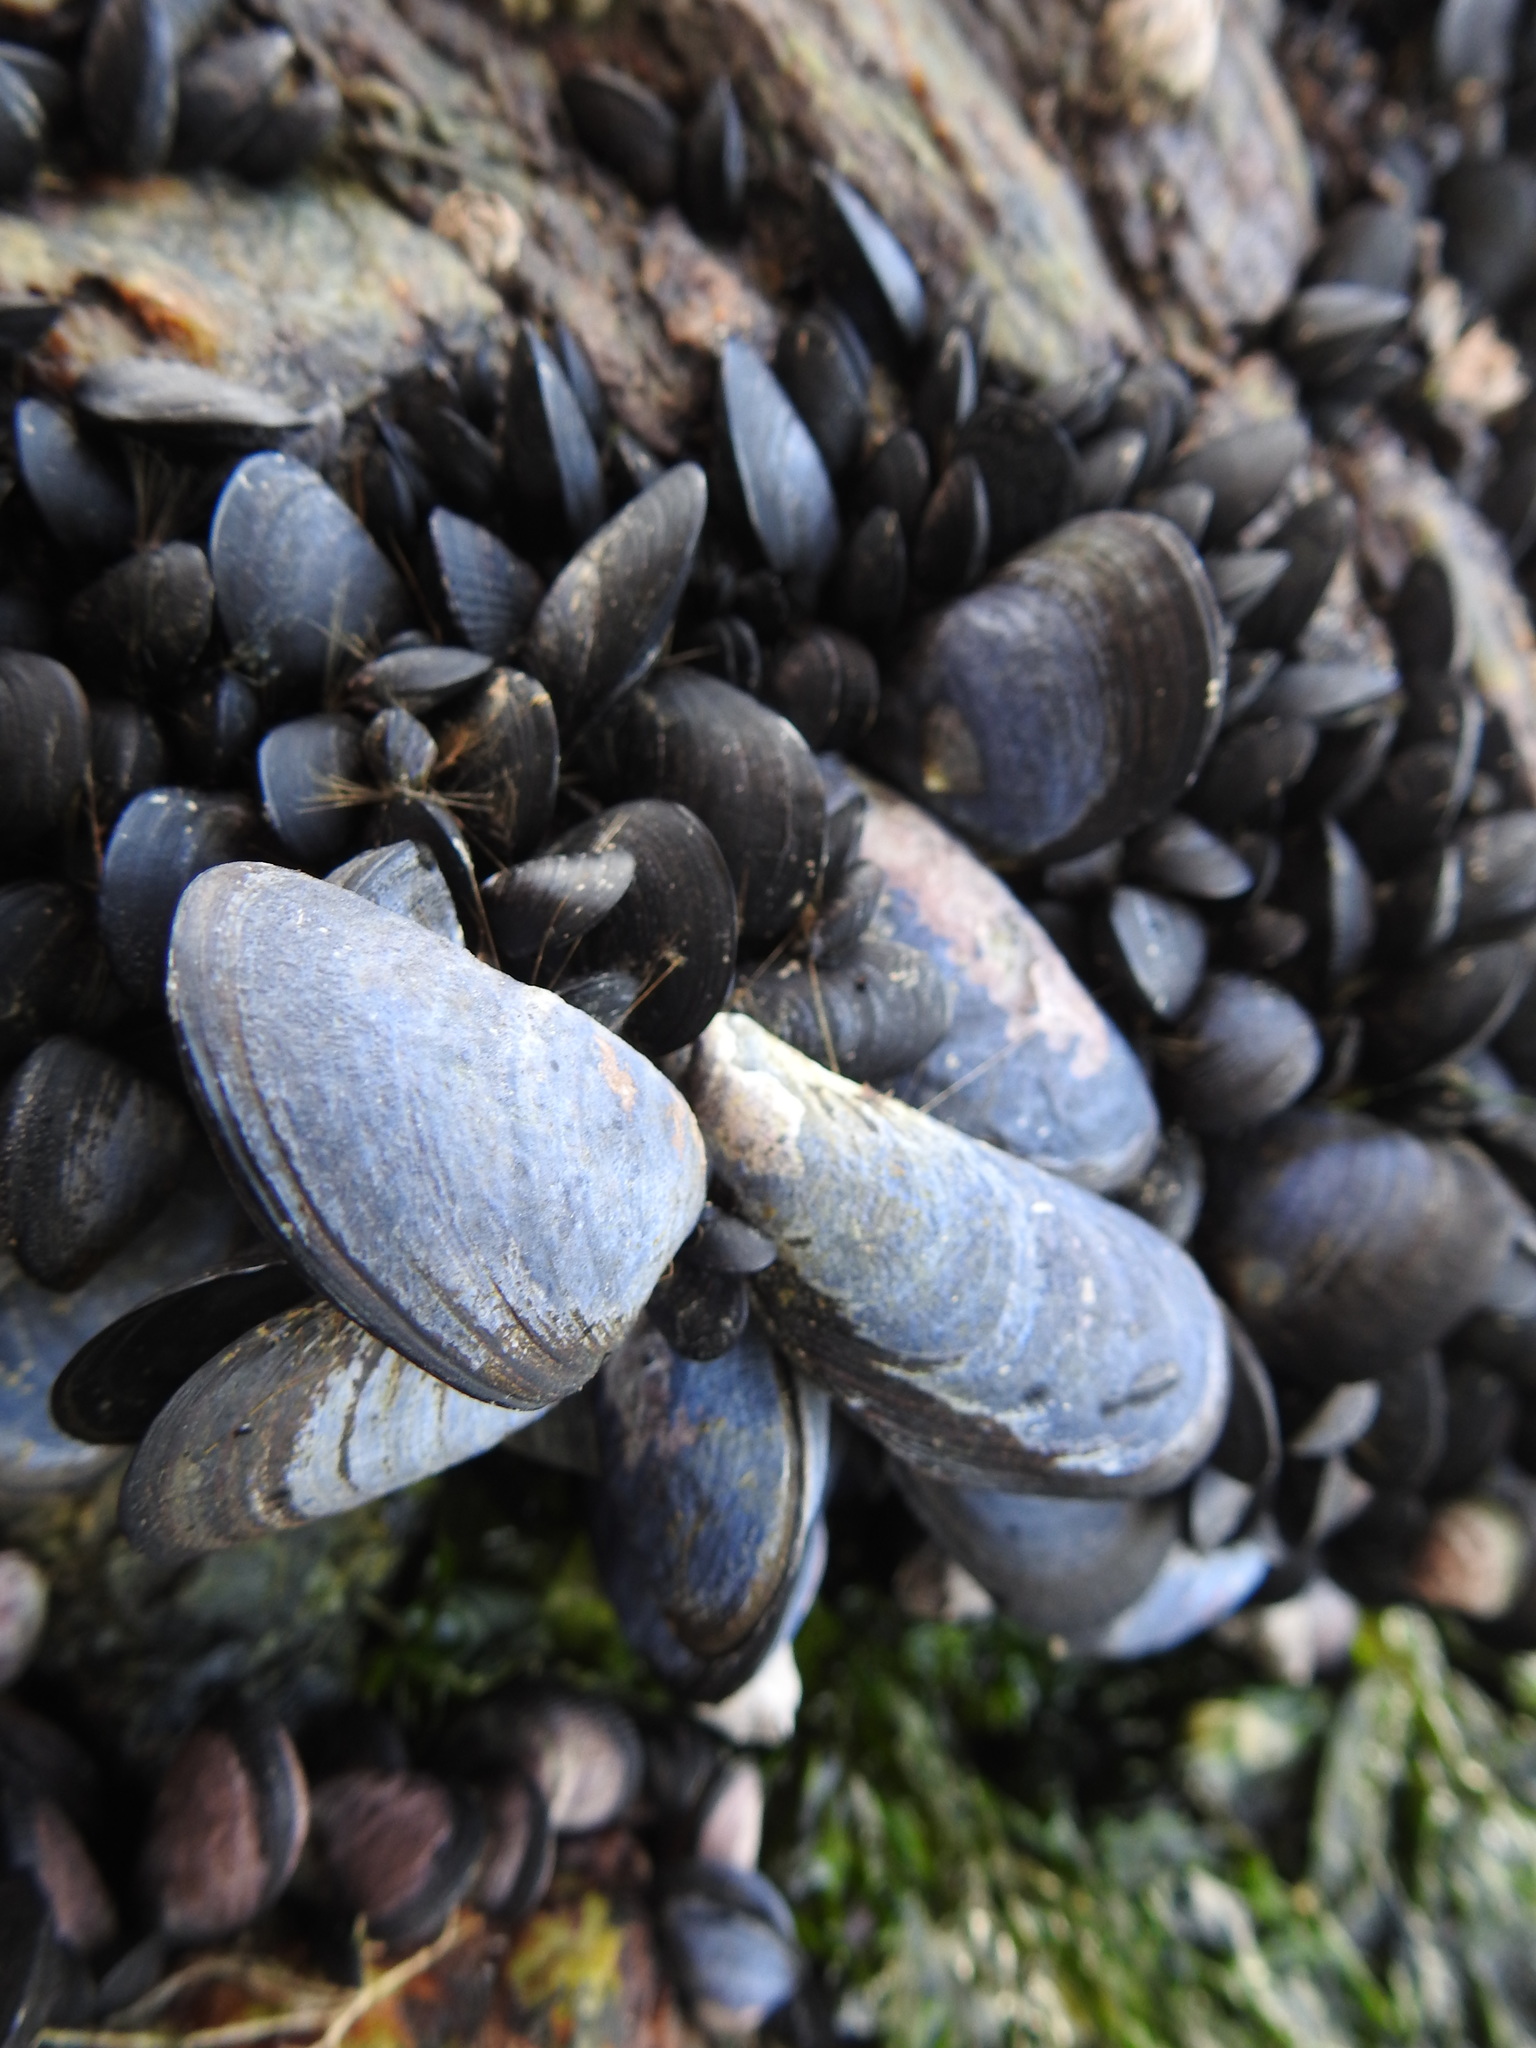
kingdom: Animalia
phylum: Mollusca
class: Bivalvia
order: Mytilida
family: Mytilidae
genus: Mytilus
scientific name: Mytilus chilensis
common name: Chilean mussel
